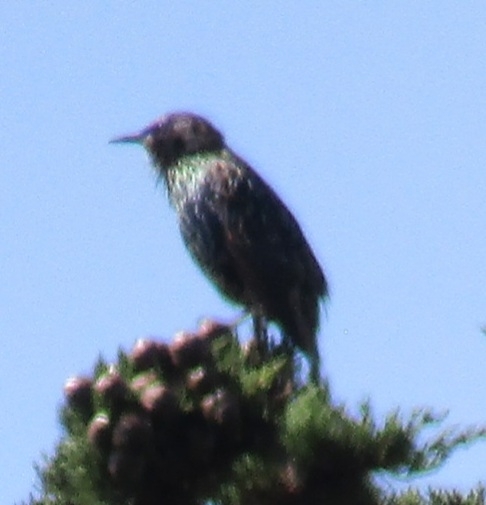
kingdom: Animalia
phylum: Chordata
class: Aves
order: Passeriformes
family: Sturnidae
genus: Sturnus
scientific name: Sturnus vulgaris
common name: Common starling
